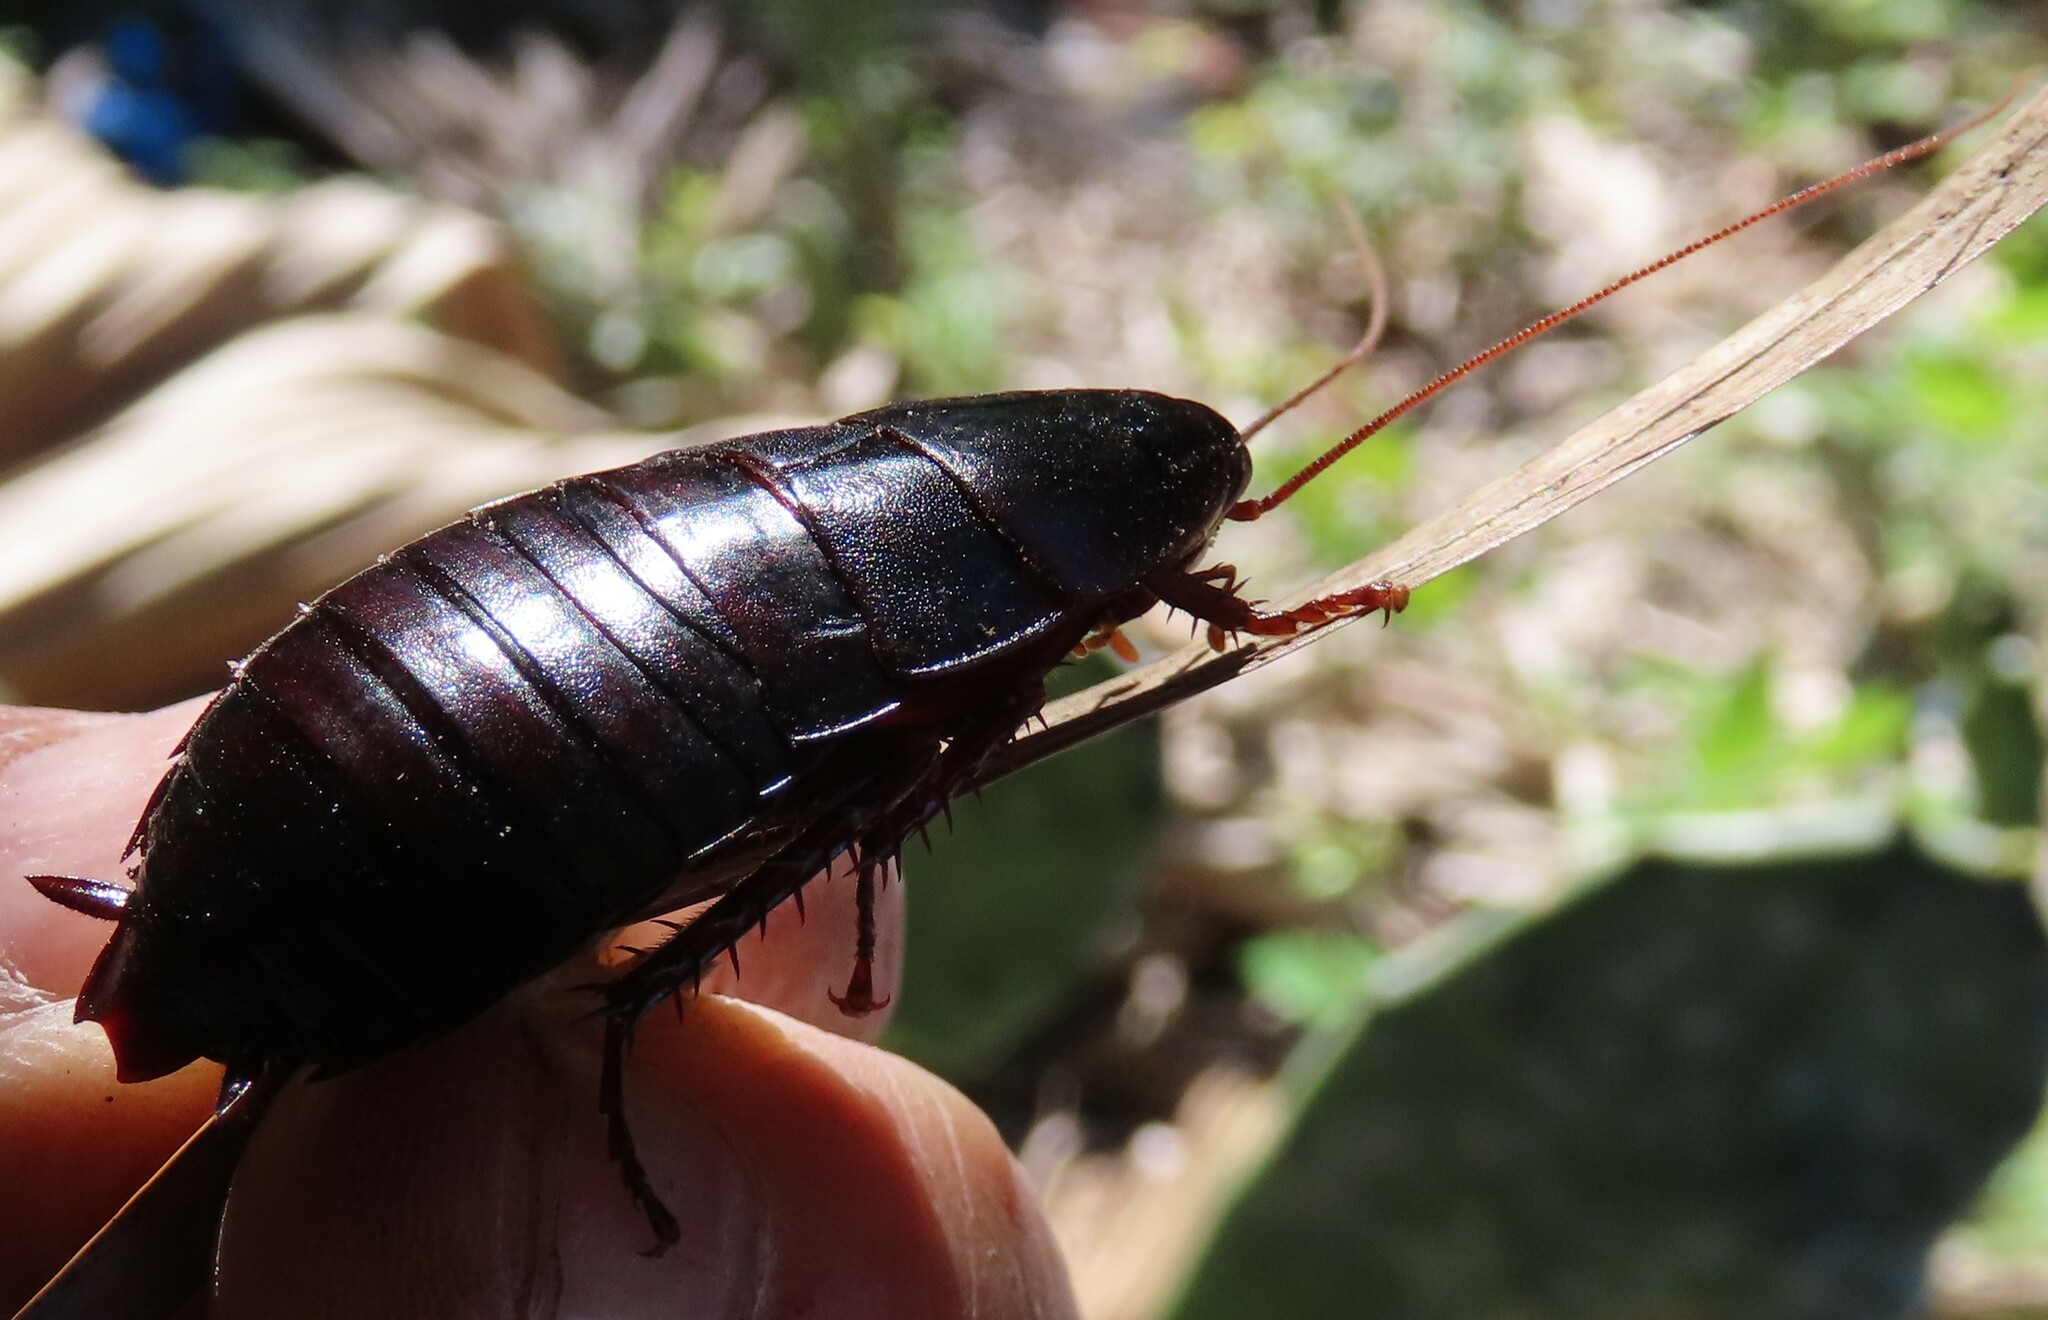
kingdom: Animalia
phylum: Arthropoda
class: Insecta
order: Blattodea
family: Blattidae
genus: Eurycotis
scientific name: Eurycotis floridana
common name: Florida cockroach
